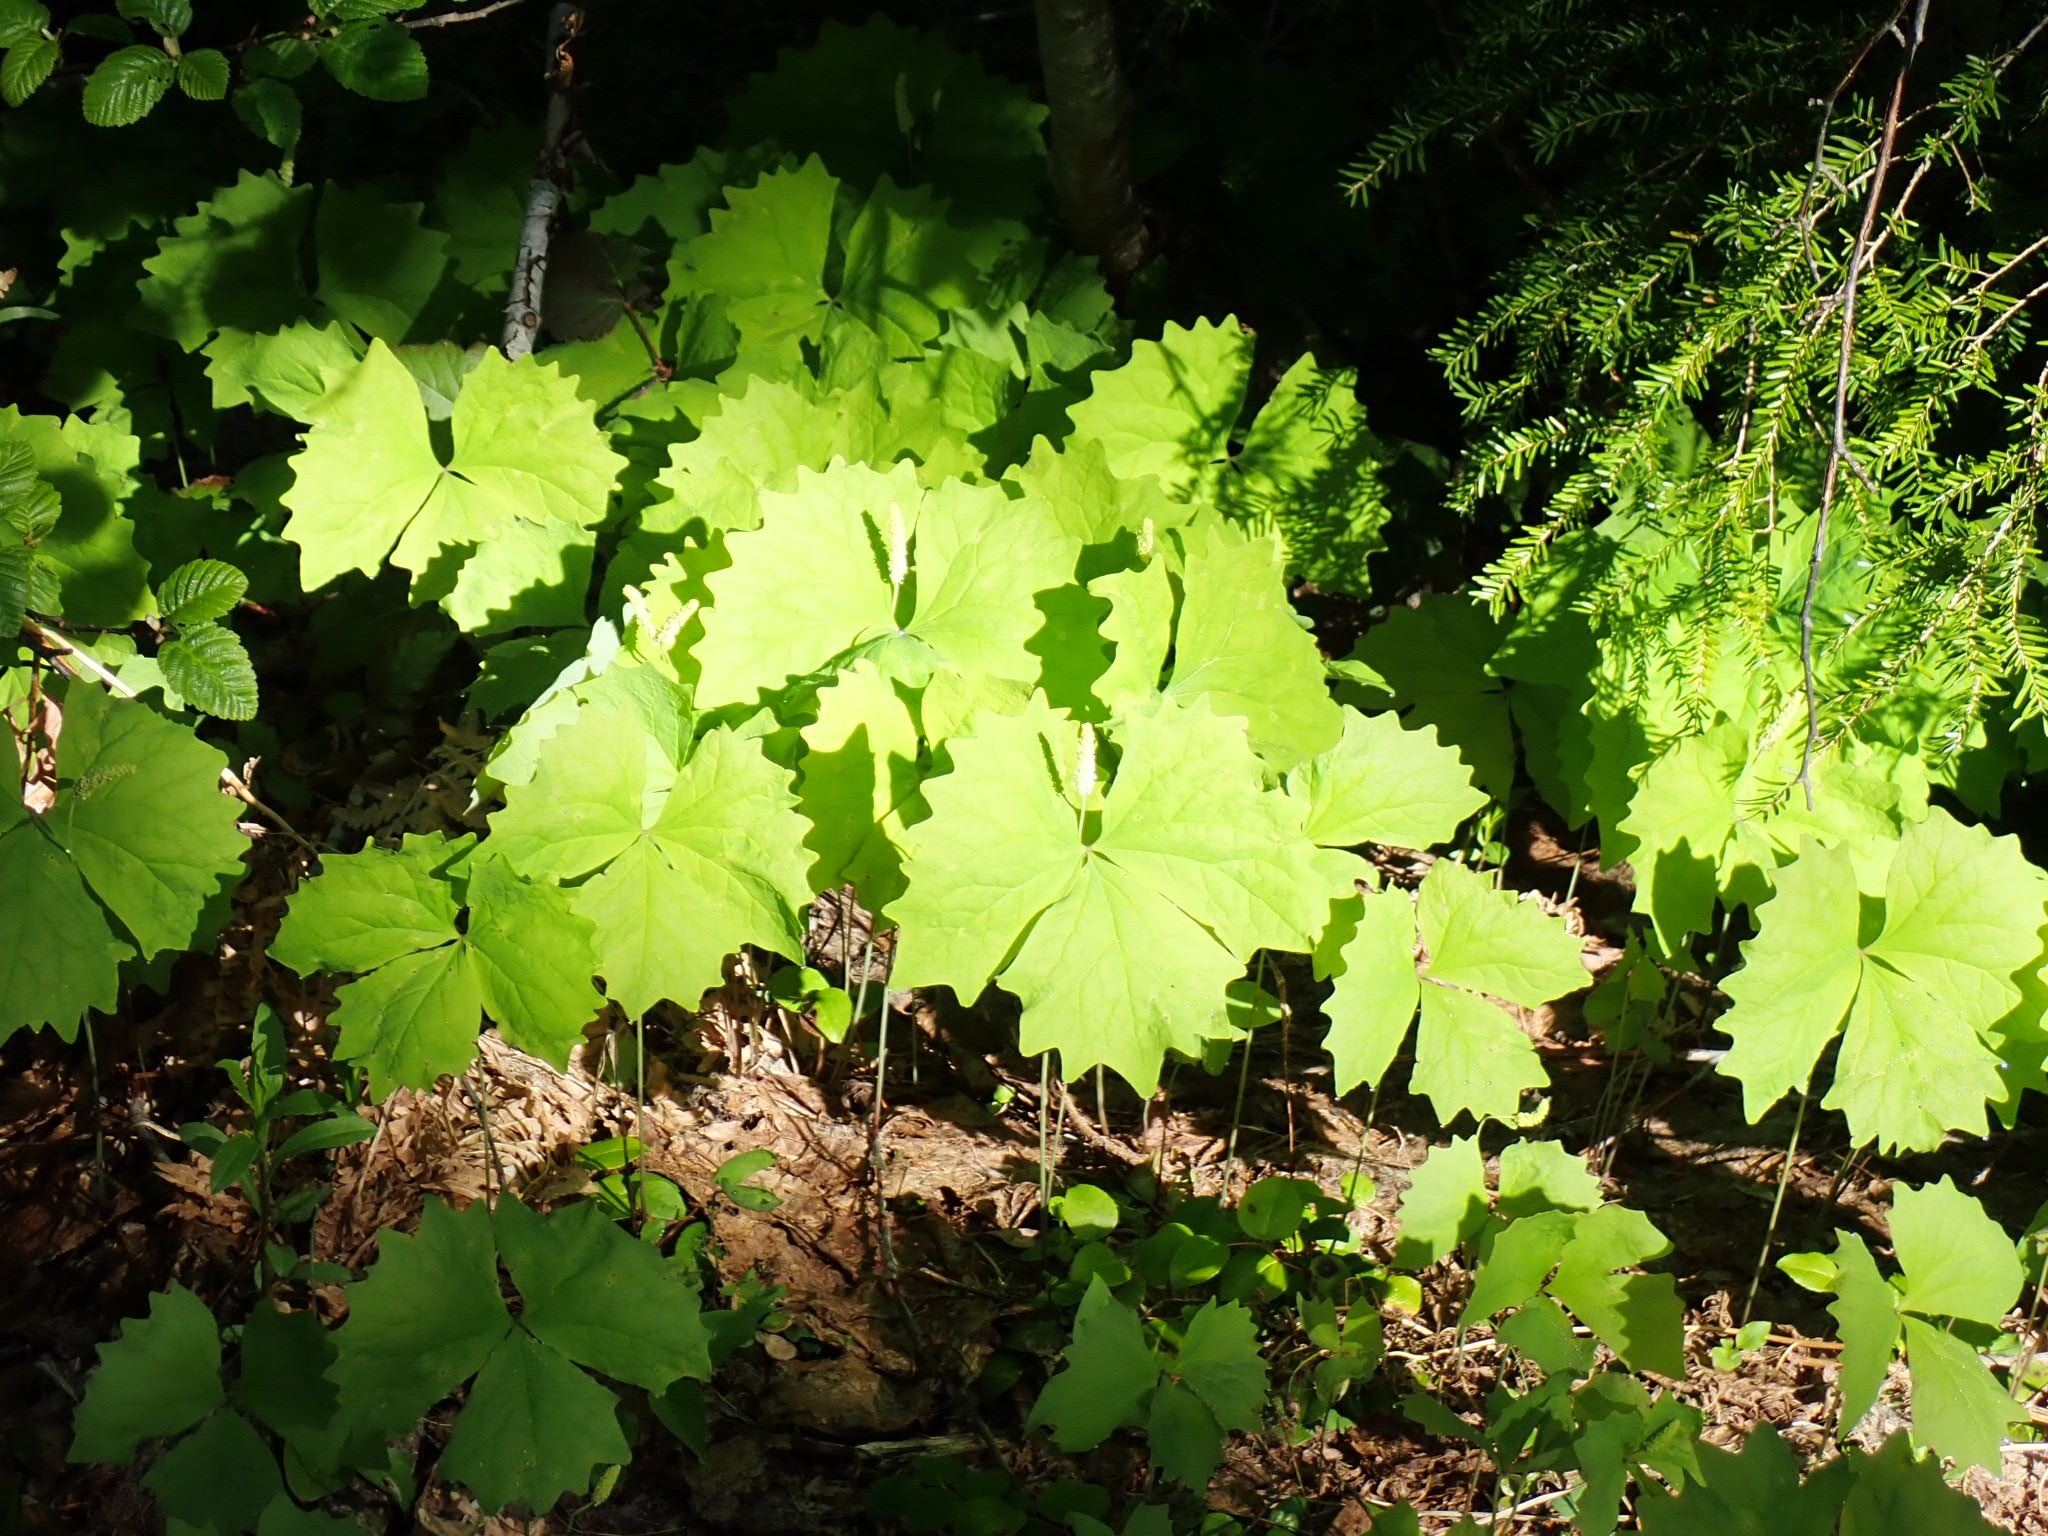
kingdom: Plantae
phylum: Tracheophyta
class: Magnoliopsida
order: Ranunculales
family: Berberidaceae
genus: Achlys
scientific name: Achlys californica
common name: California deer-foot
